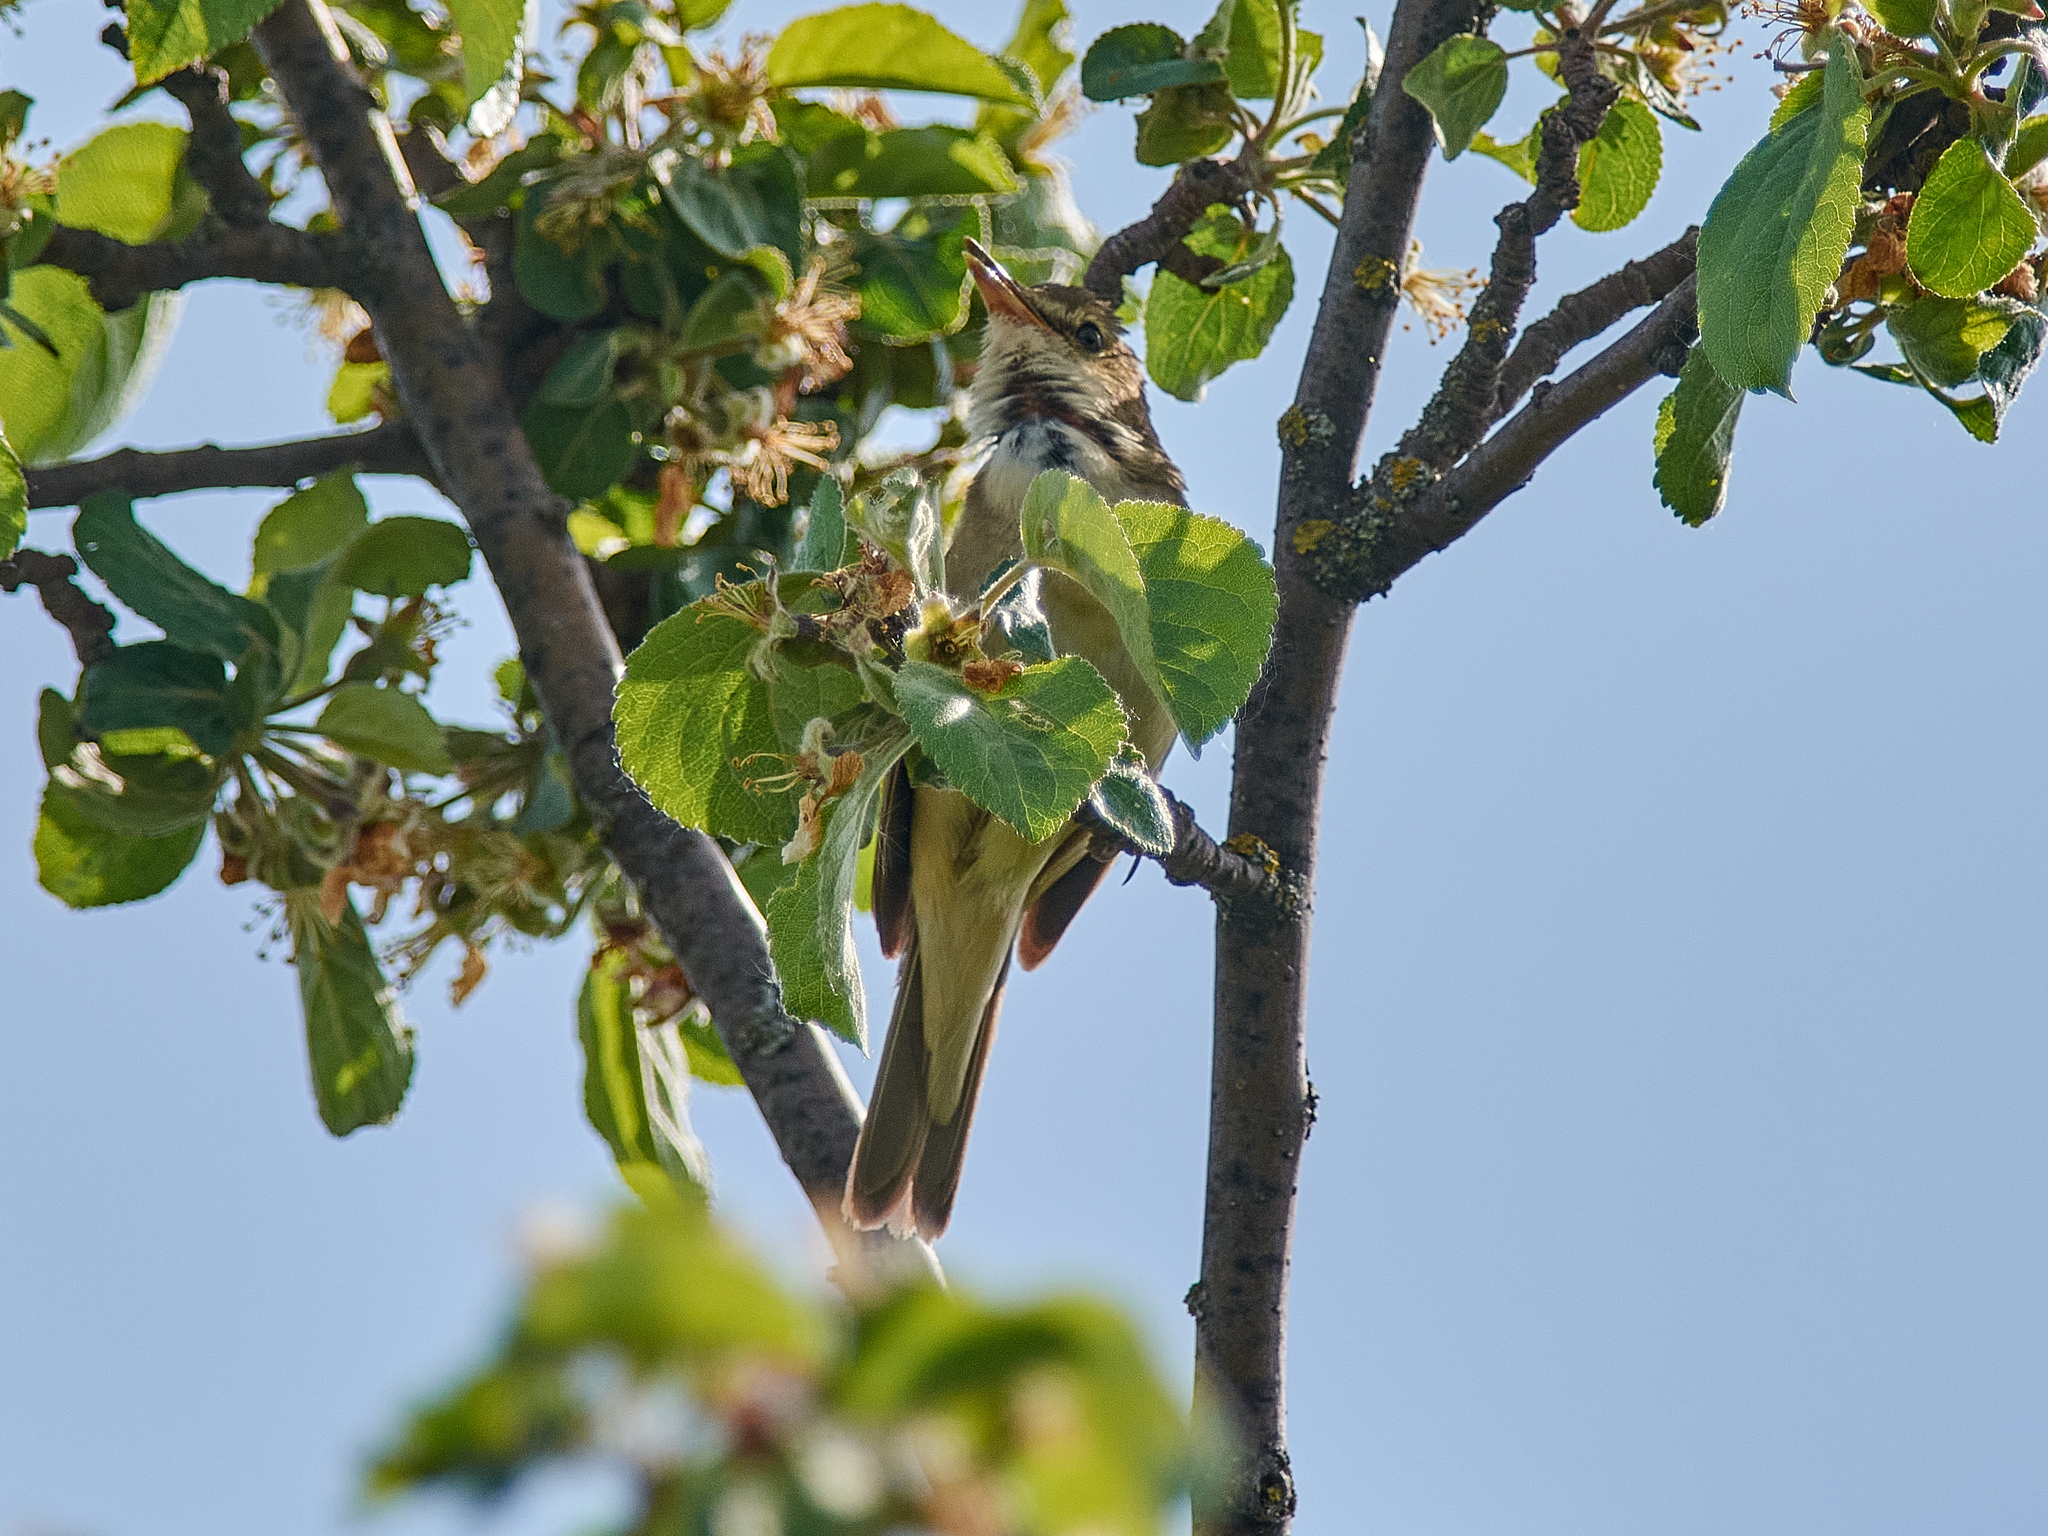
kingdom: Animalia
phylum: Chordata
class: Aves
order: Passeriformes
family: Acrocephalidae
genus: Acrocephalus
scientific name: Acrocephalus dumetorum
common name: Blyth's reed warbler
